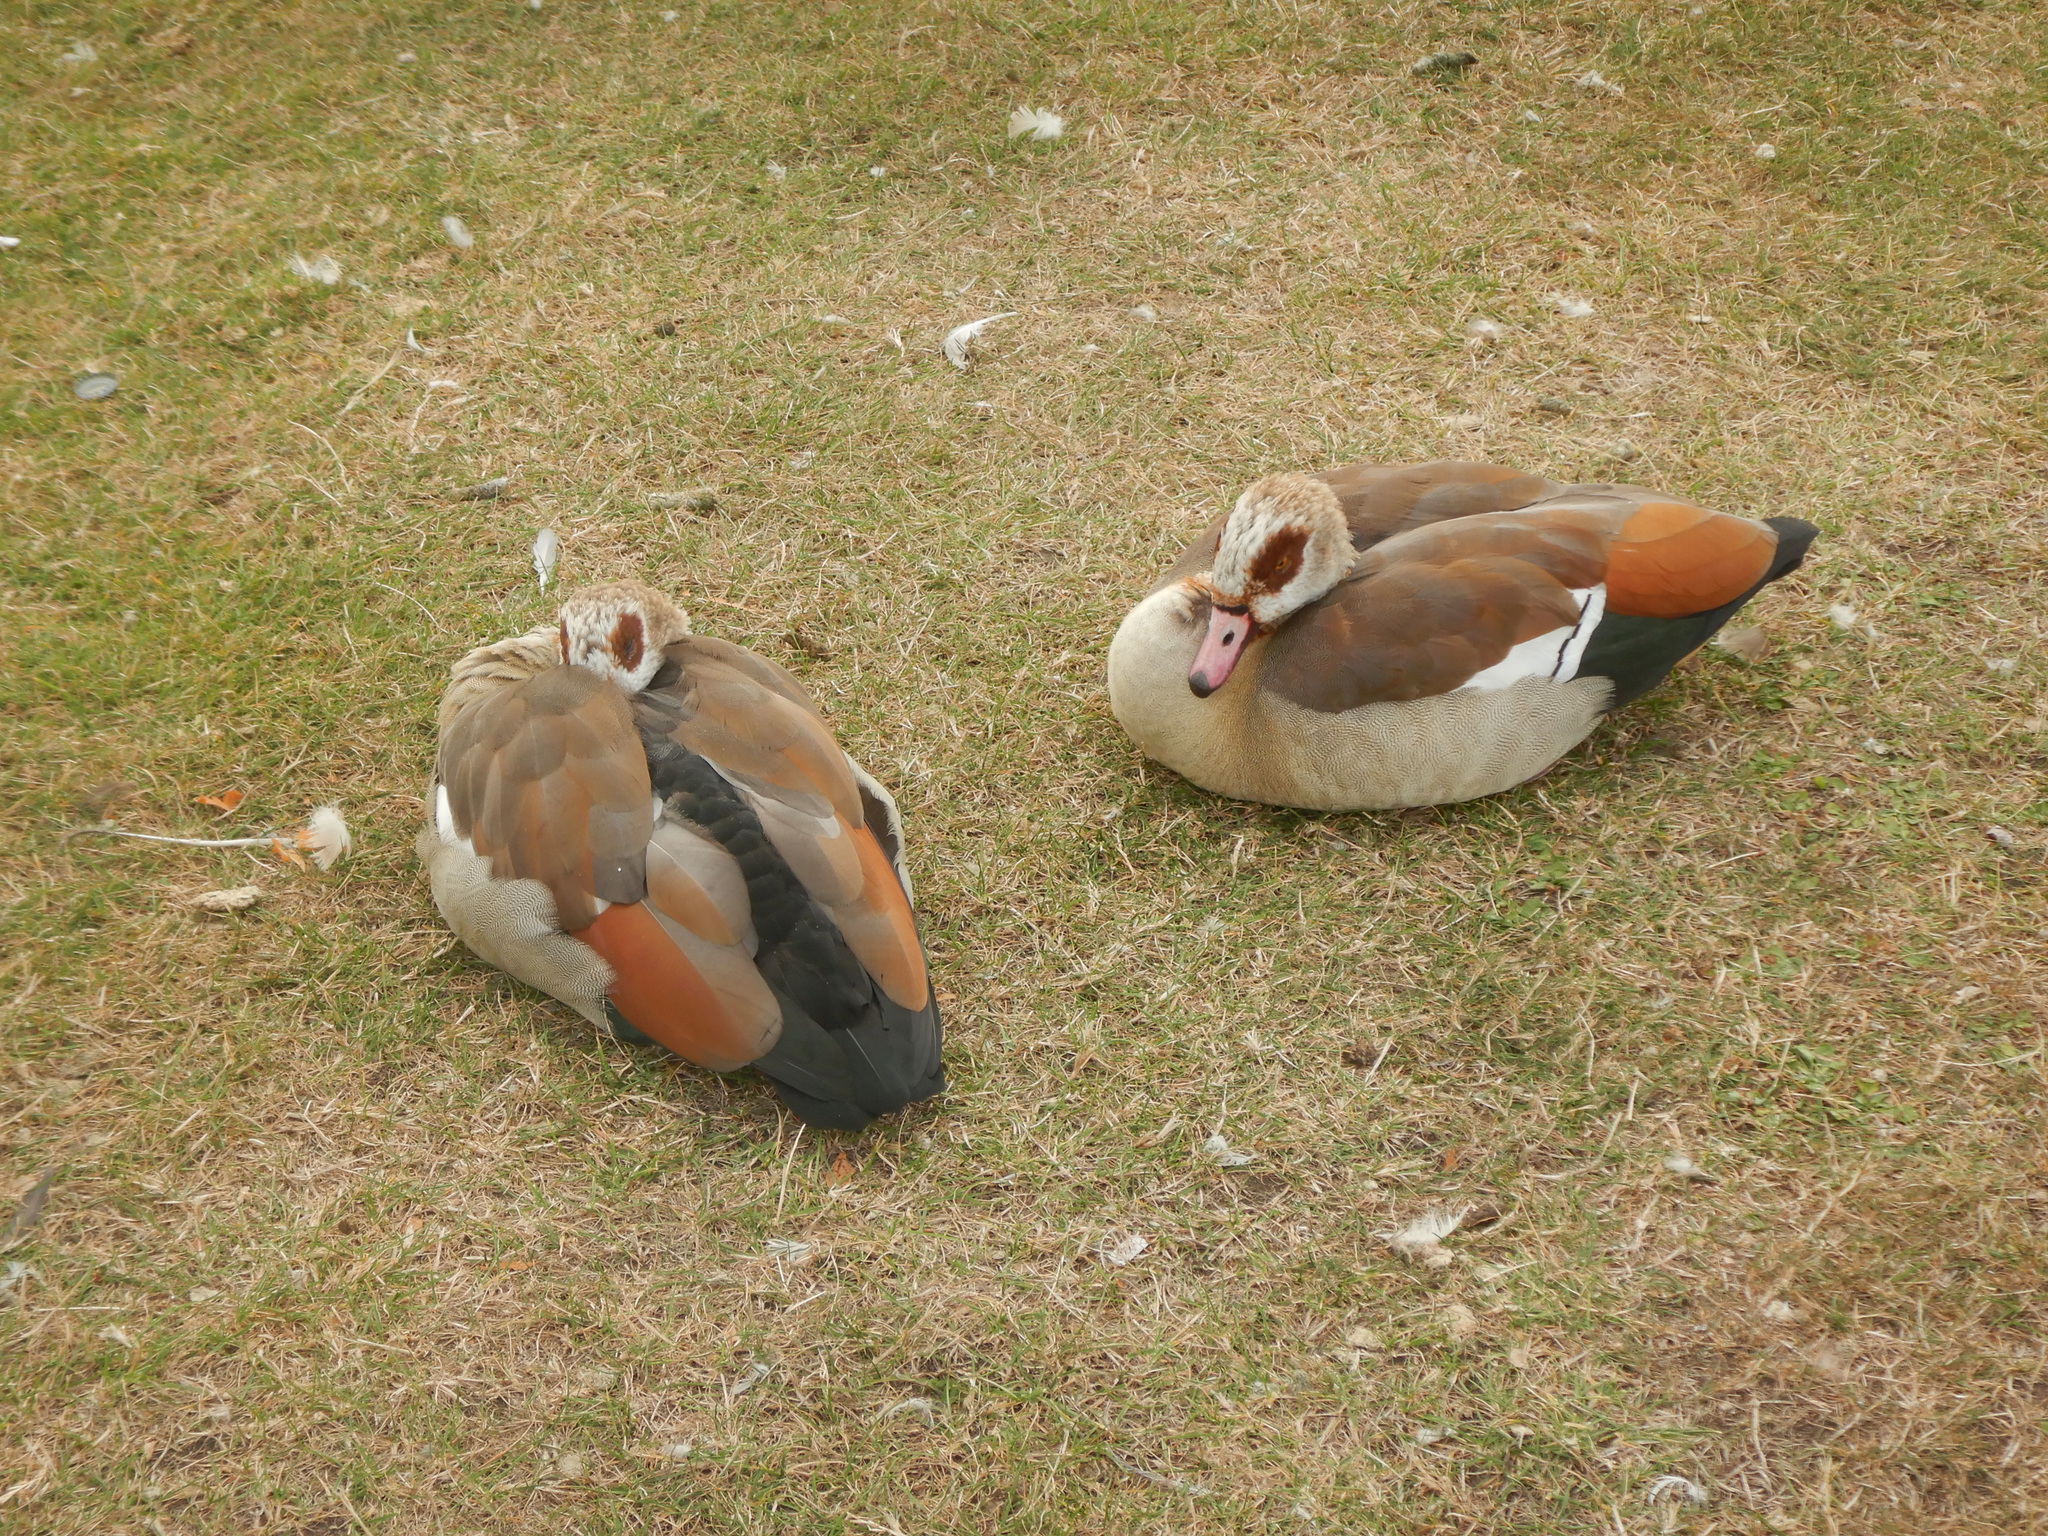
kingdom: Animalia
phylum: Chordata
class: Aves
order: Anseriformes
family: Anatidae
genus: Alopochen
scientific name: Alopochen aegyptiaca
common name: Egyptian goose
